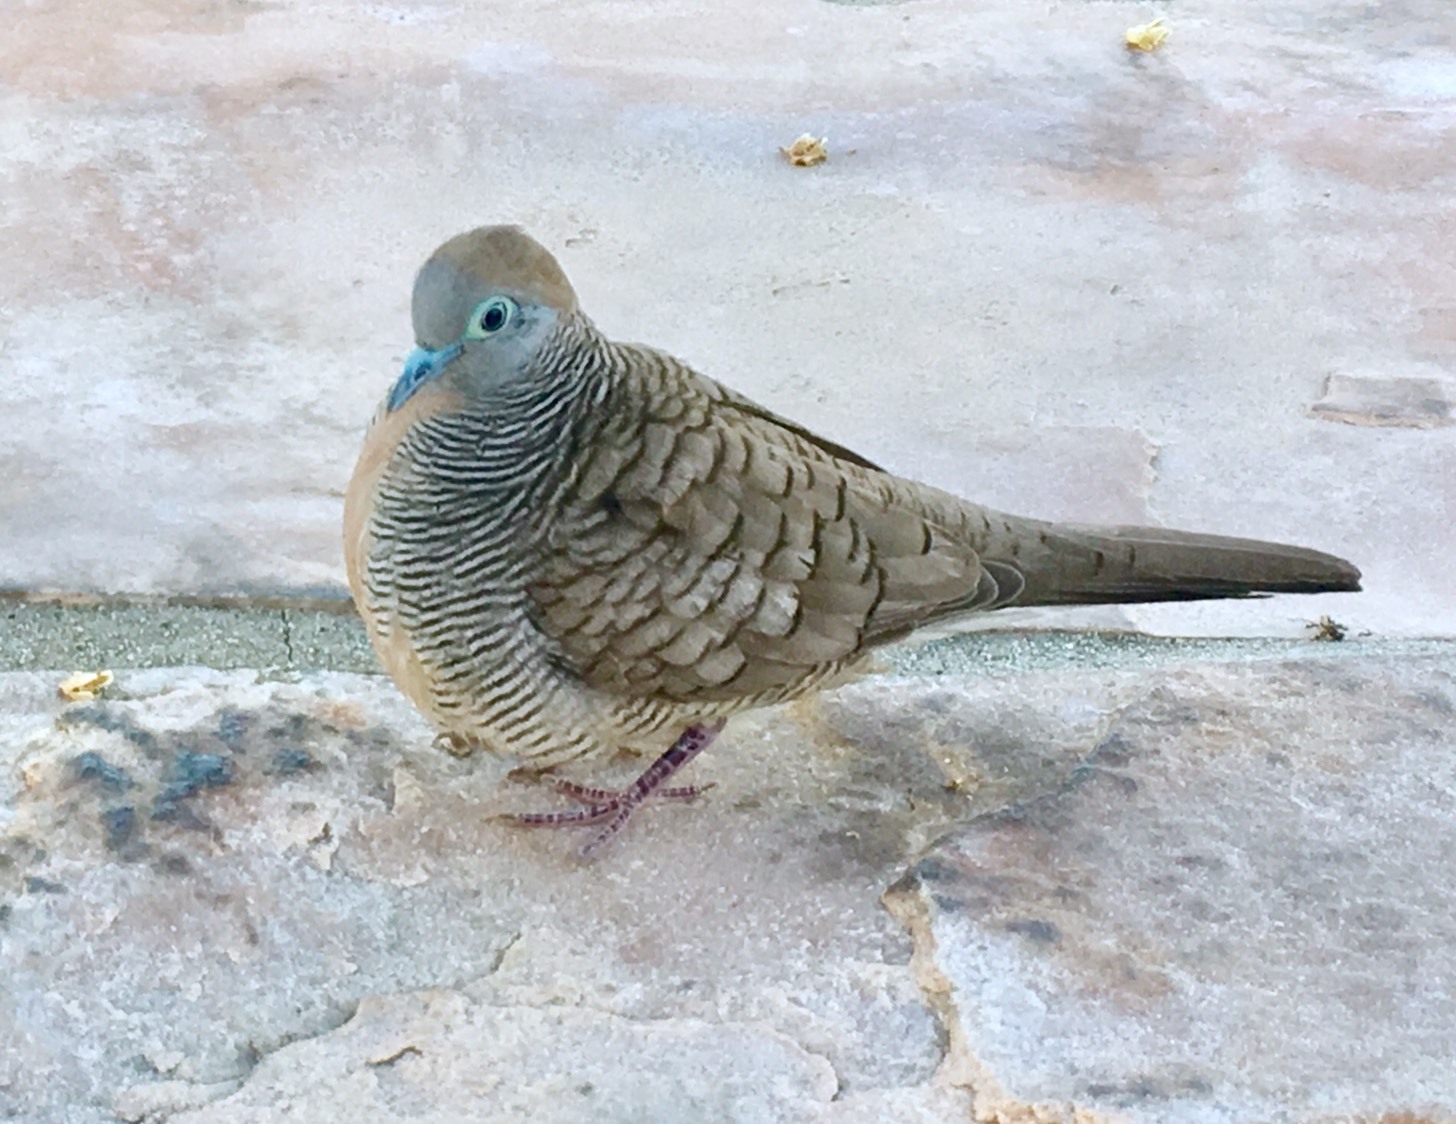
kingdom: Animalia
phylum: Chordata
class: Aves
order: Columbiformes
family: Columbidae
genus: Geopelia
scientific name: Geopelia striata
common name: Zebra dove
